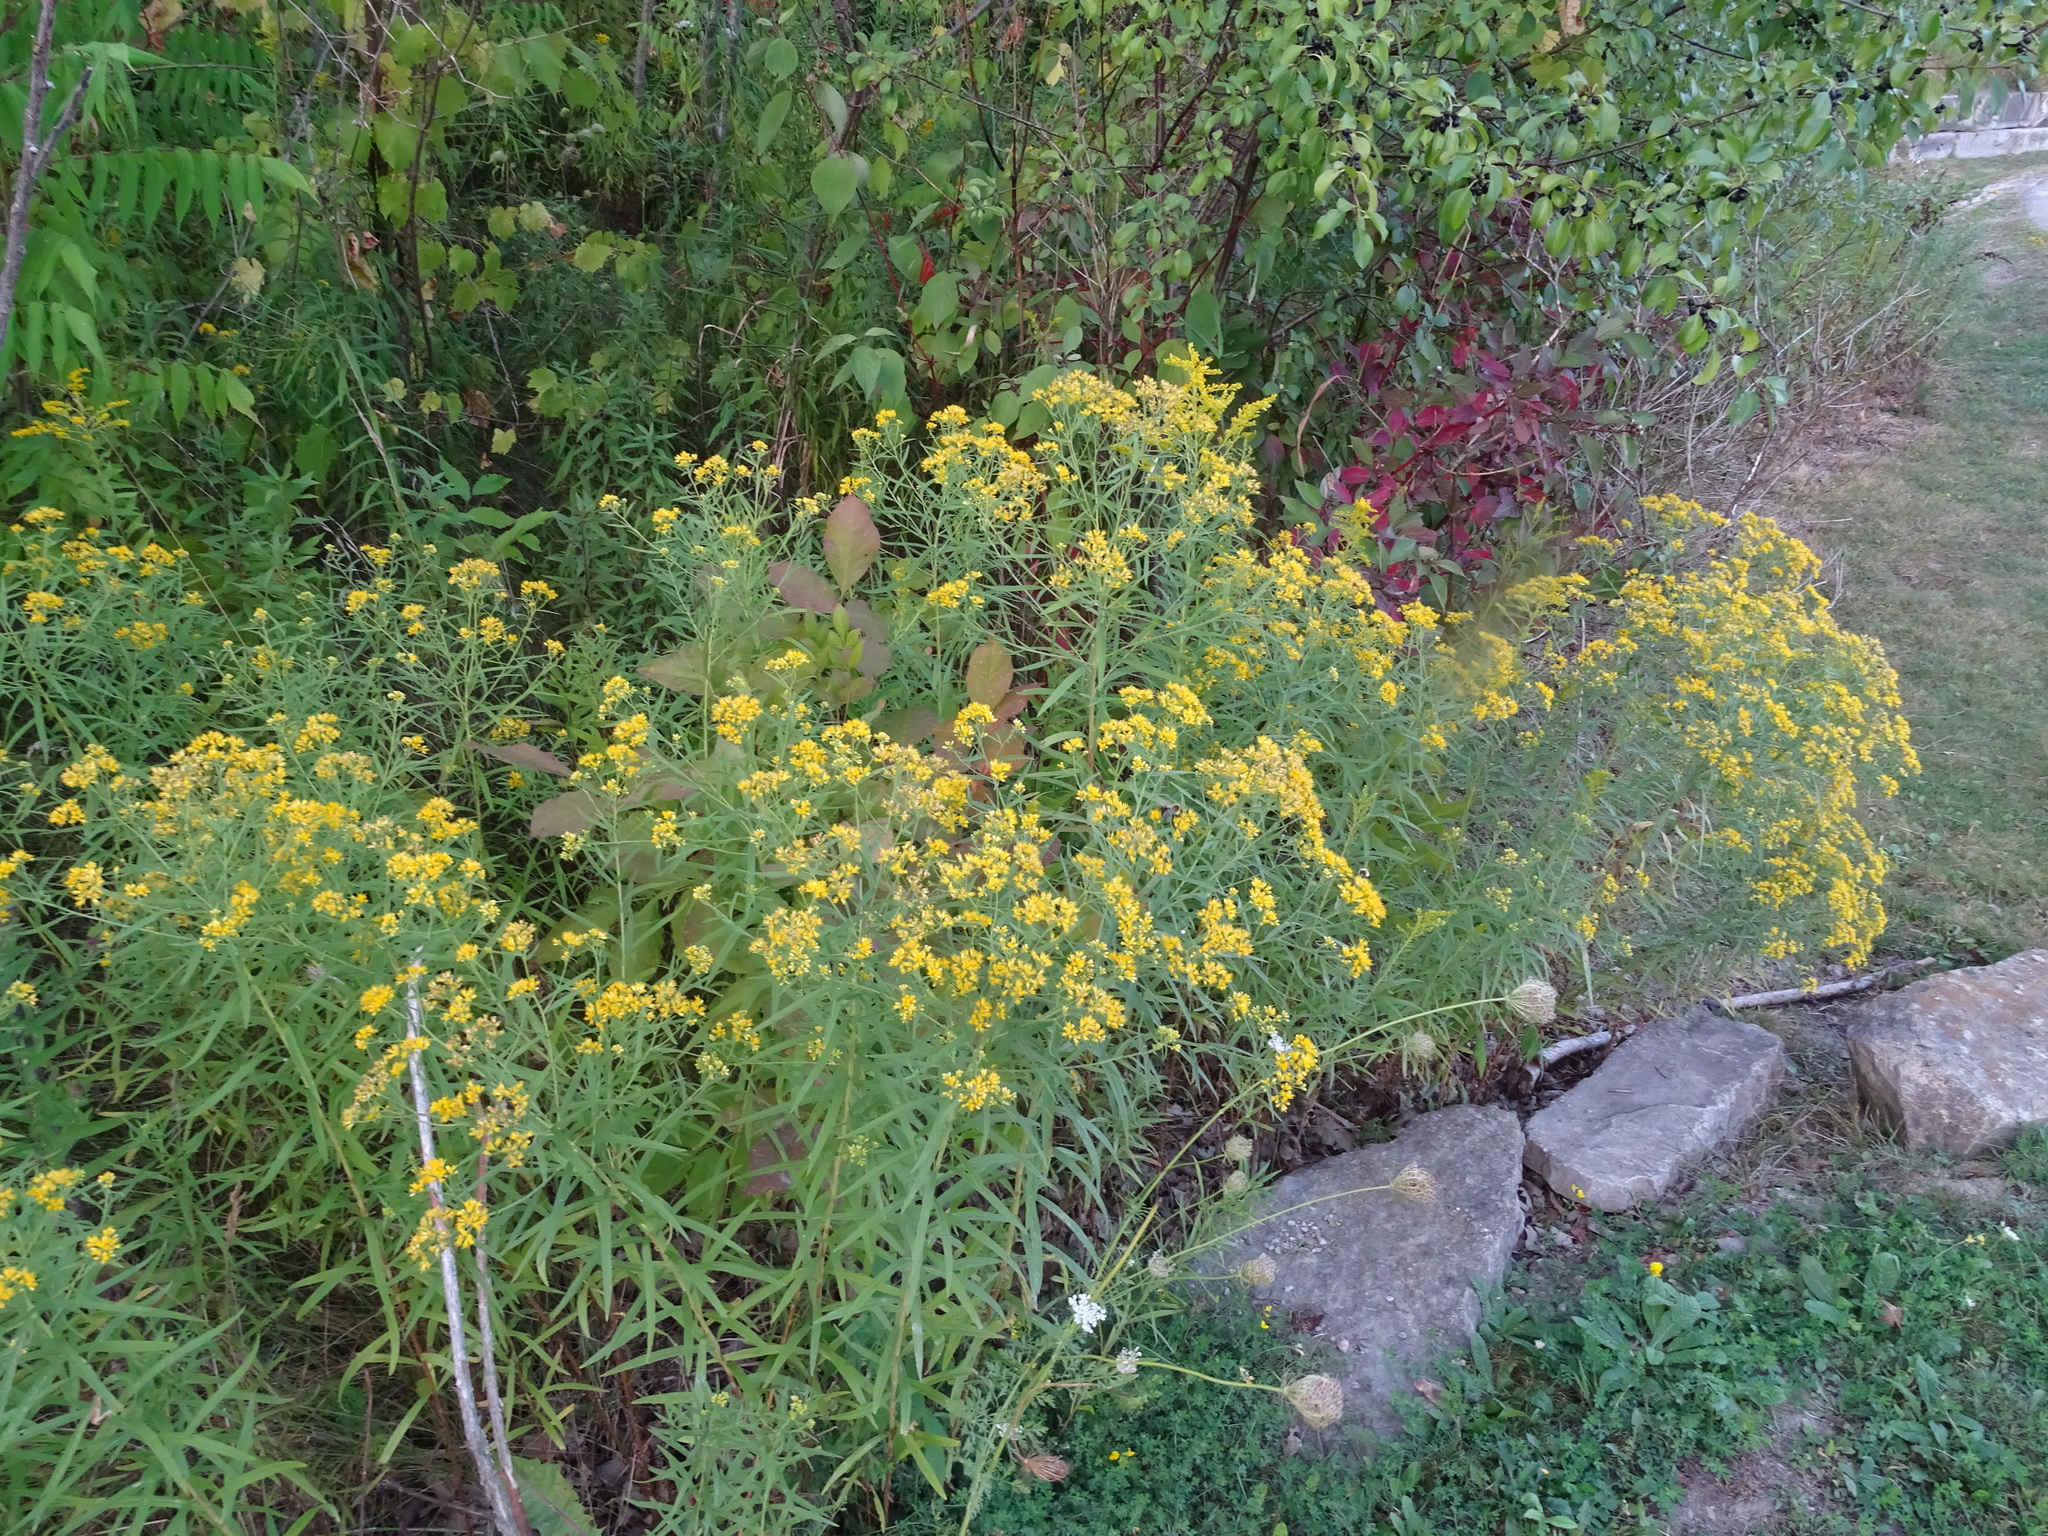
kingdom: Plantae
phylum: Tracheophyta
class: Magnoliopsida
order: Asterales
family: Asteraceae
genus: Euthamia
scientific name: Euthamia graminifolia
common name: Common goldentop
